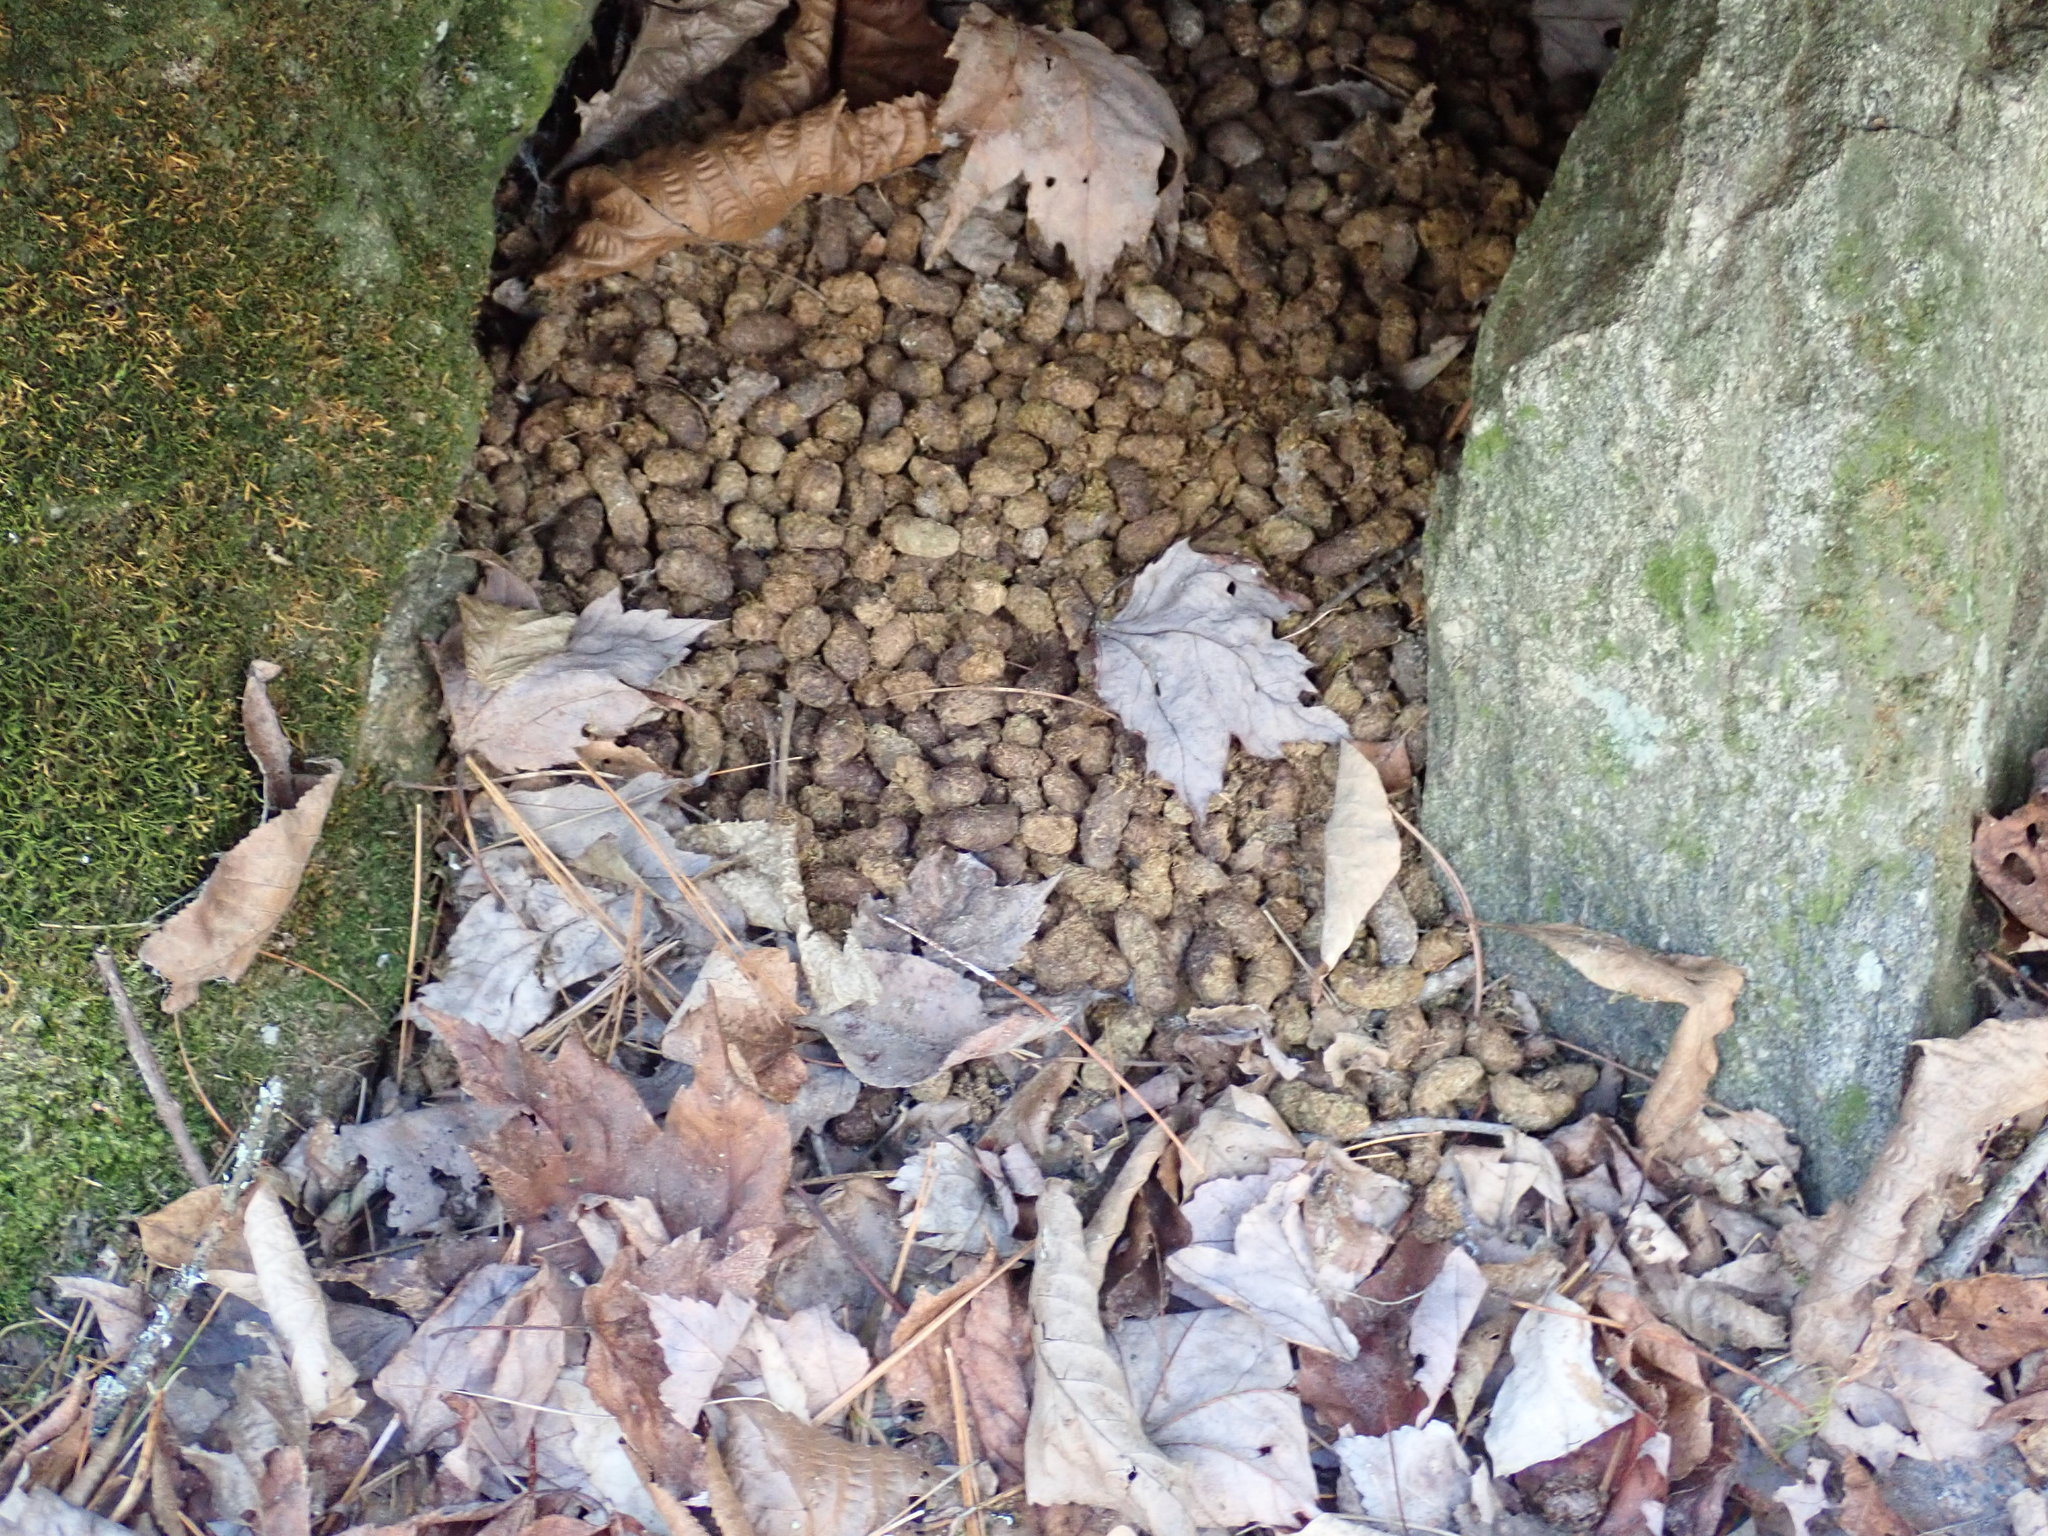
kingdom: Animalia
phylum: Chordata
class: Mammalia
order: Rodentia
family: Erethizontidae
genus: Erethizon
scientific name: Erethizon dorsatus
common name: North american porcupine
